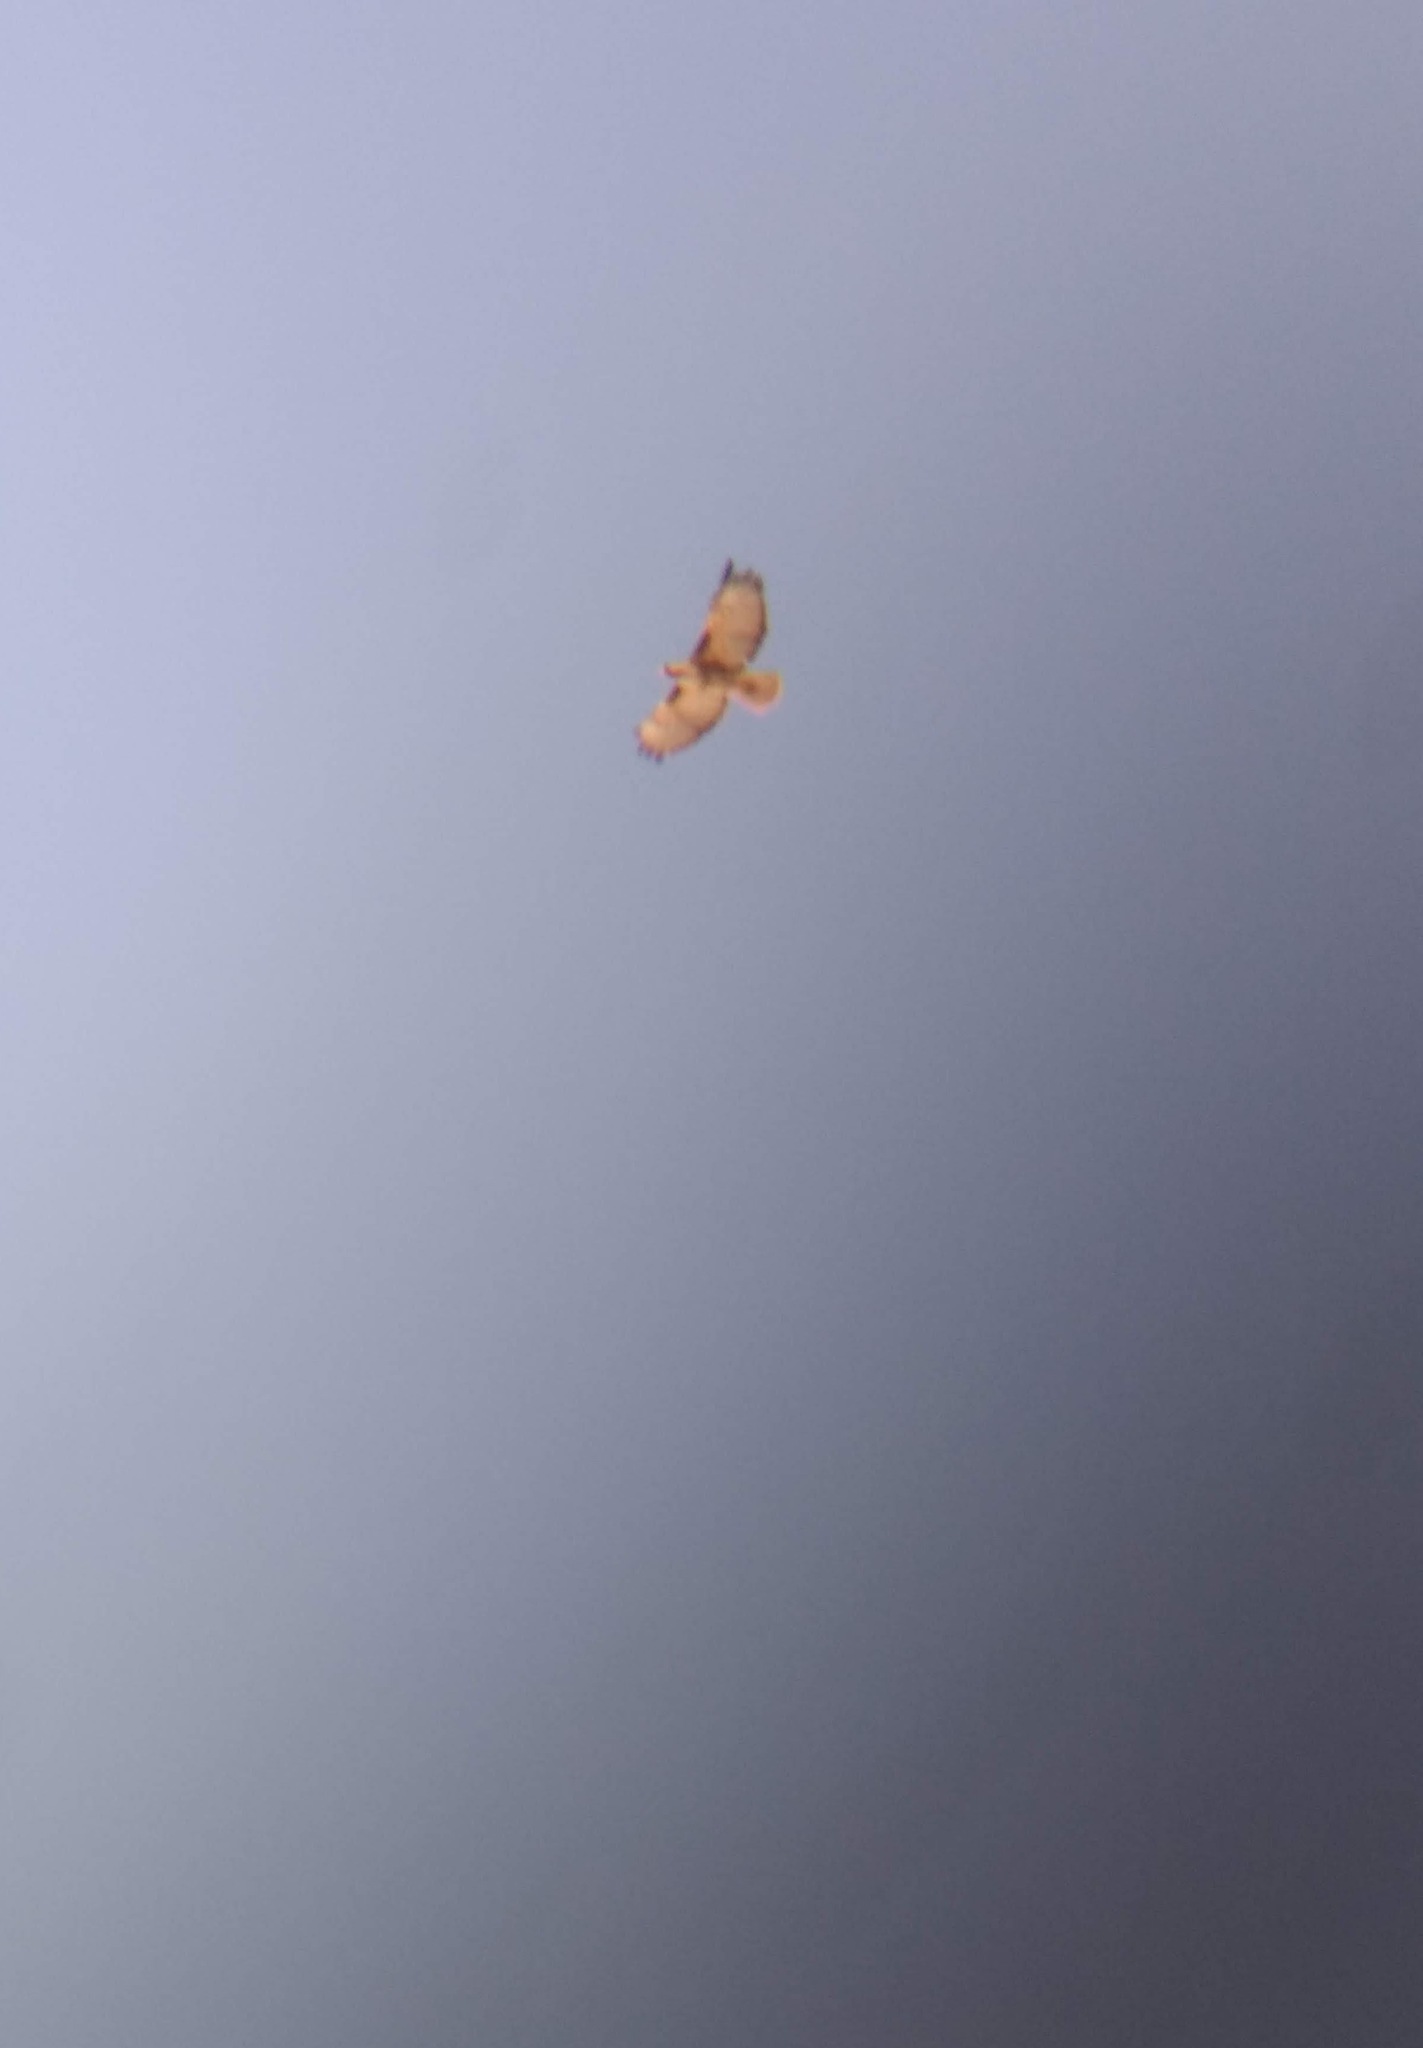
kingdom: Animalia
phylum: Chordata
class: Aves
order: Accipitriformes
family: Accipitridae
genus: Buteo
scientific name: Buteo jamaicensis
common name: Red-tailed hawk
